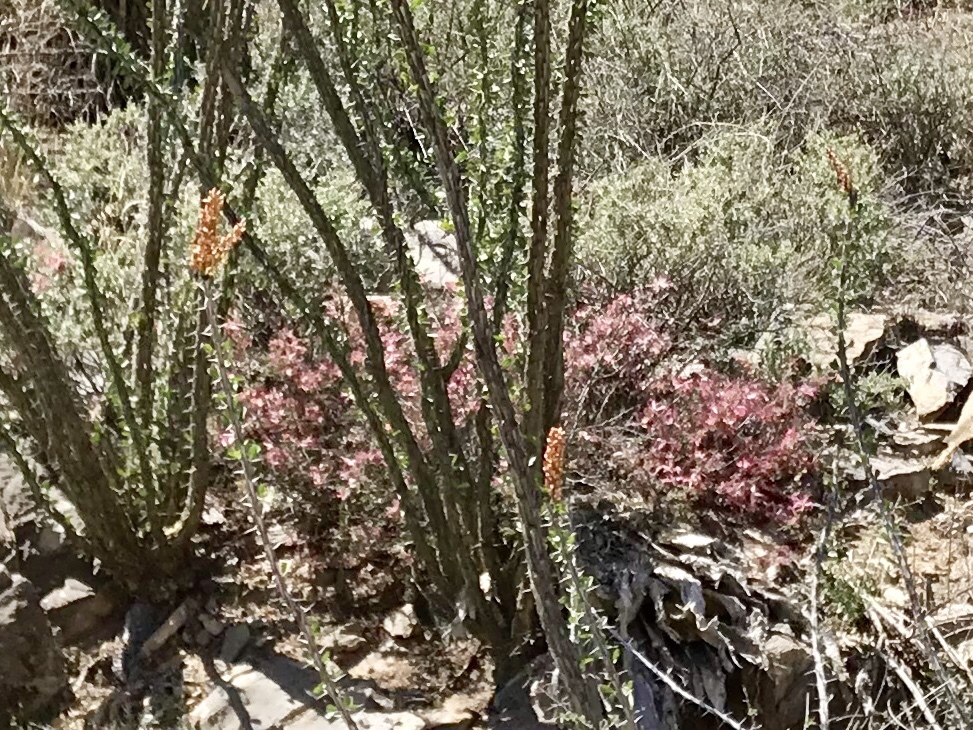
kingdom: Plantae
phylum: Tracheophyta
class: Magnoliopsida
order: Fabales
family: Fabaceae
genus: Calliandra
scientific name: Calliandra eriophylla
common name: Fairy-duster
